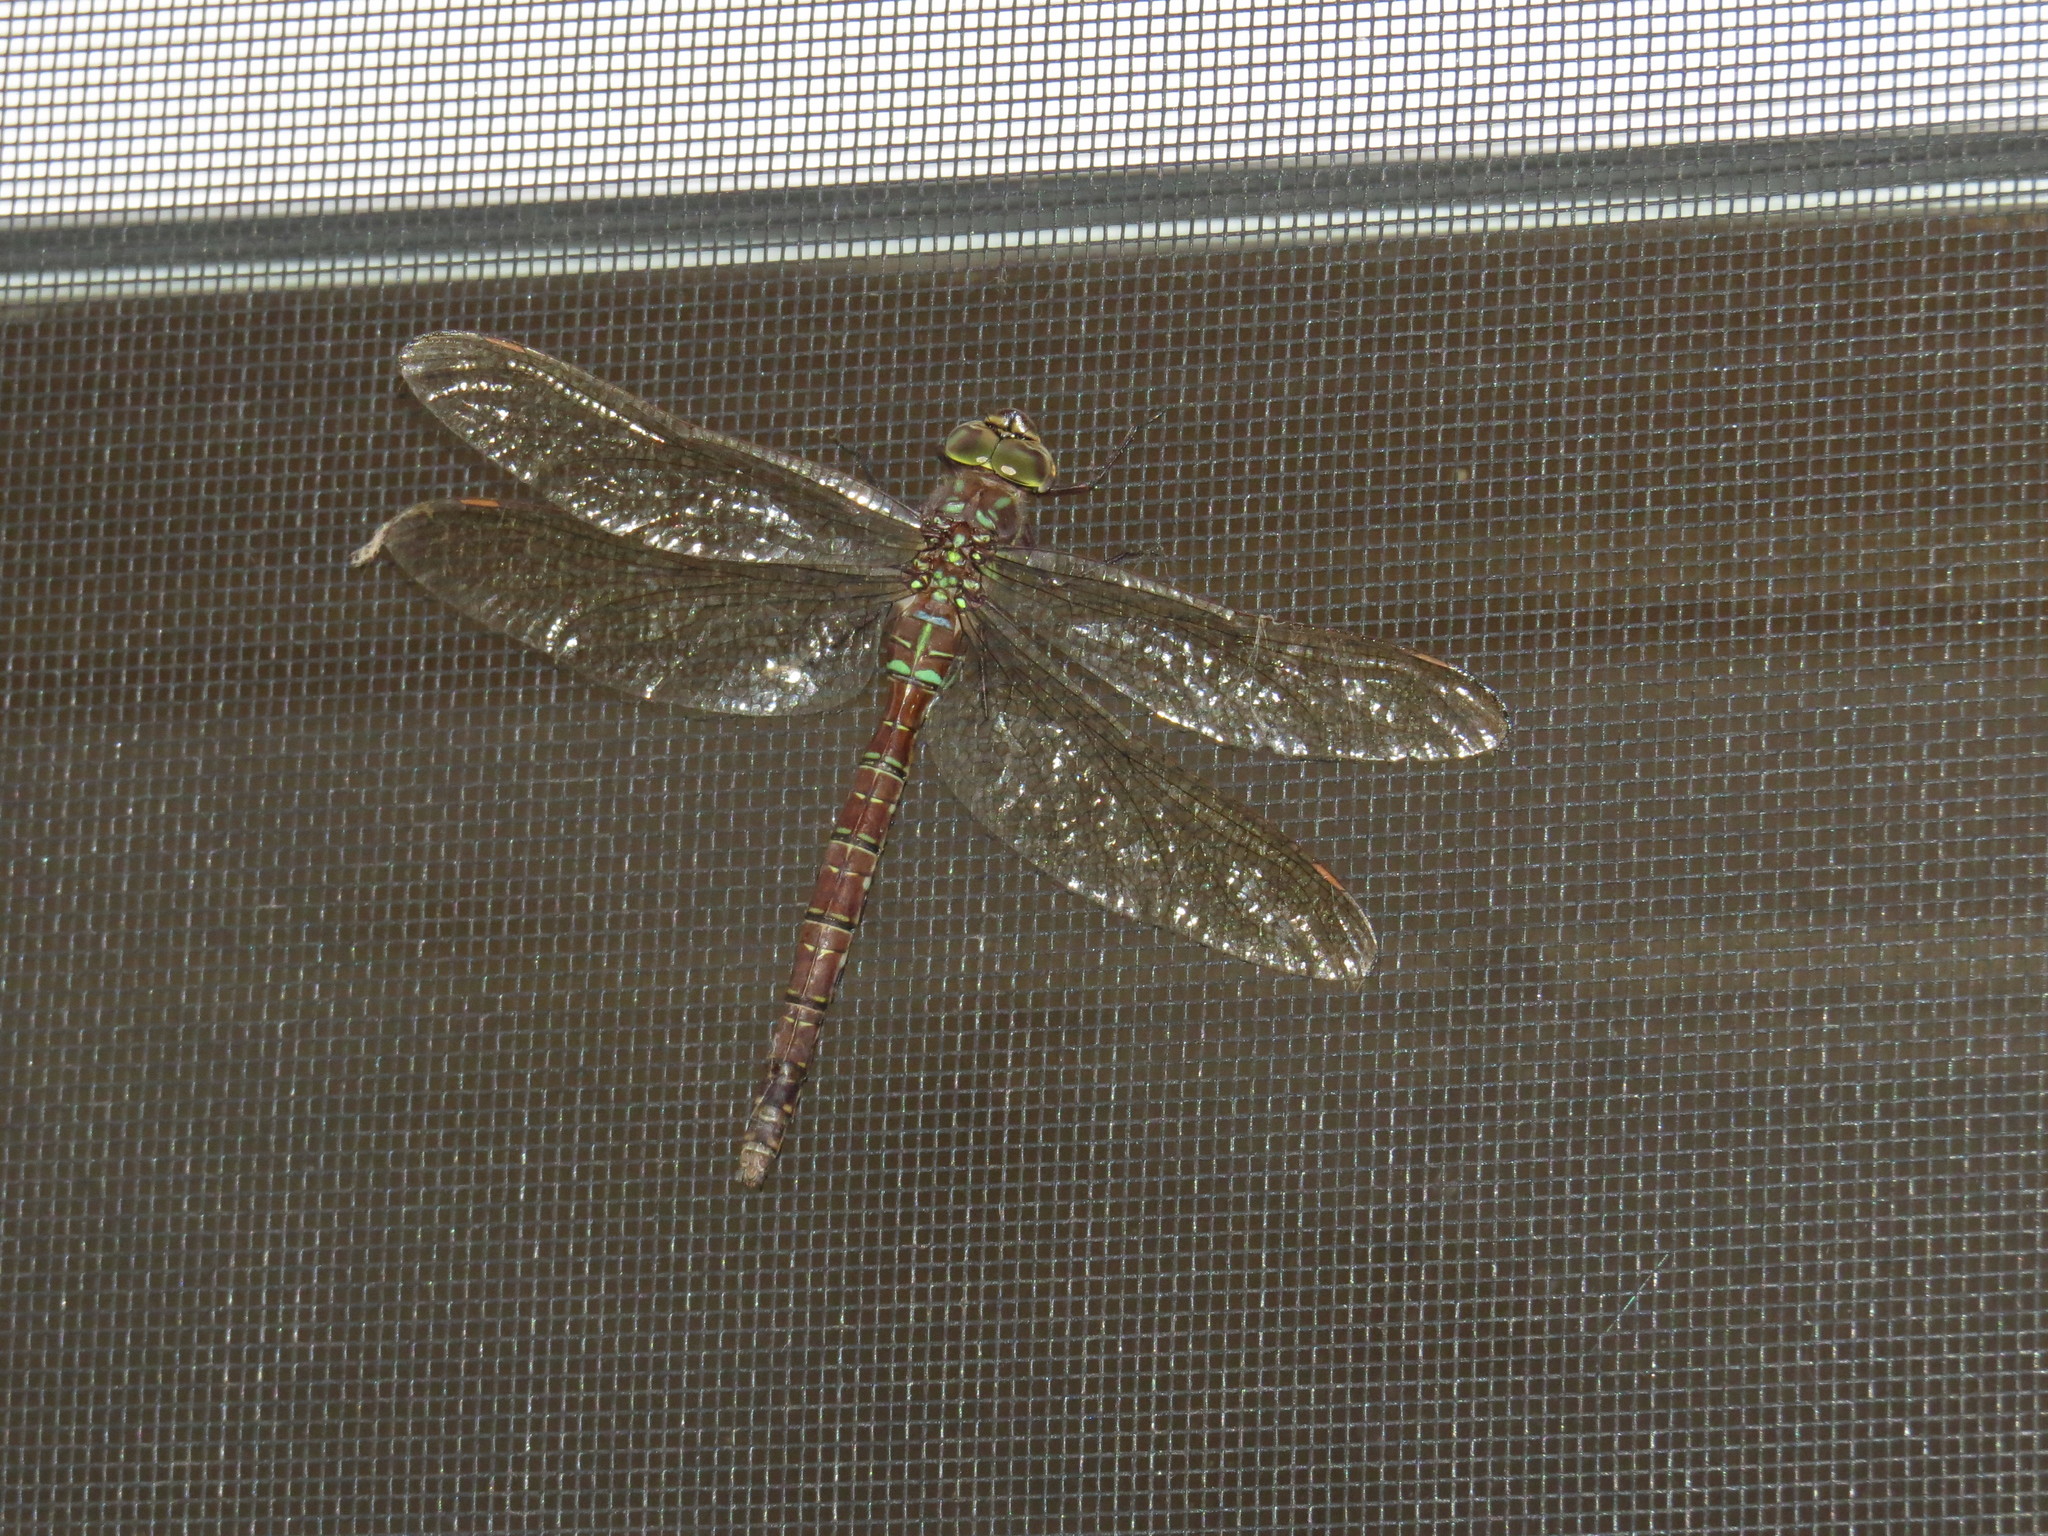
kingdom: Animalia
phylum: Arthropoda
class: Insecta
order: Odonata
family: Aeshnidae
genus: Aeshna
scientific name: Aeshna umbrosa
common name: Shadow darner
